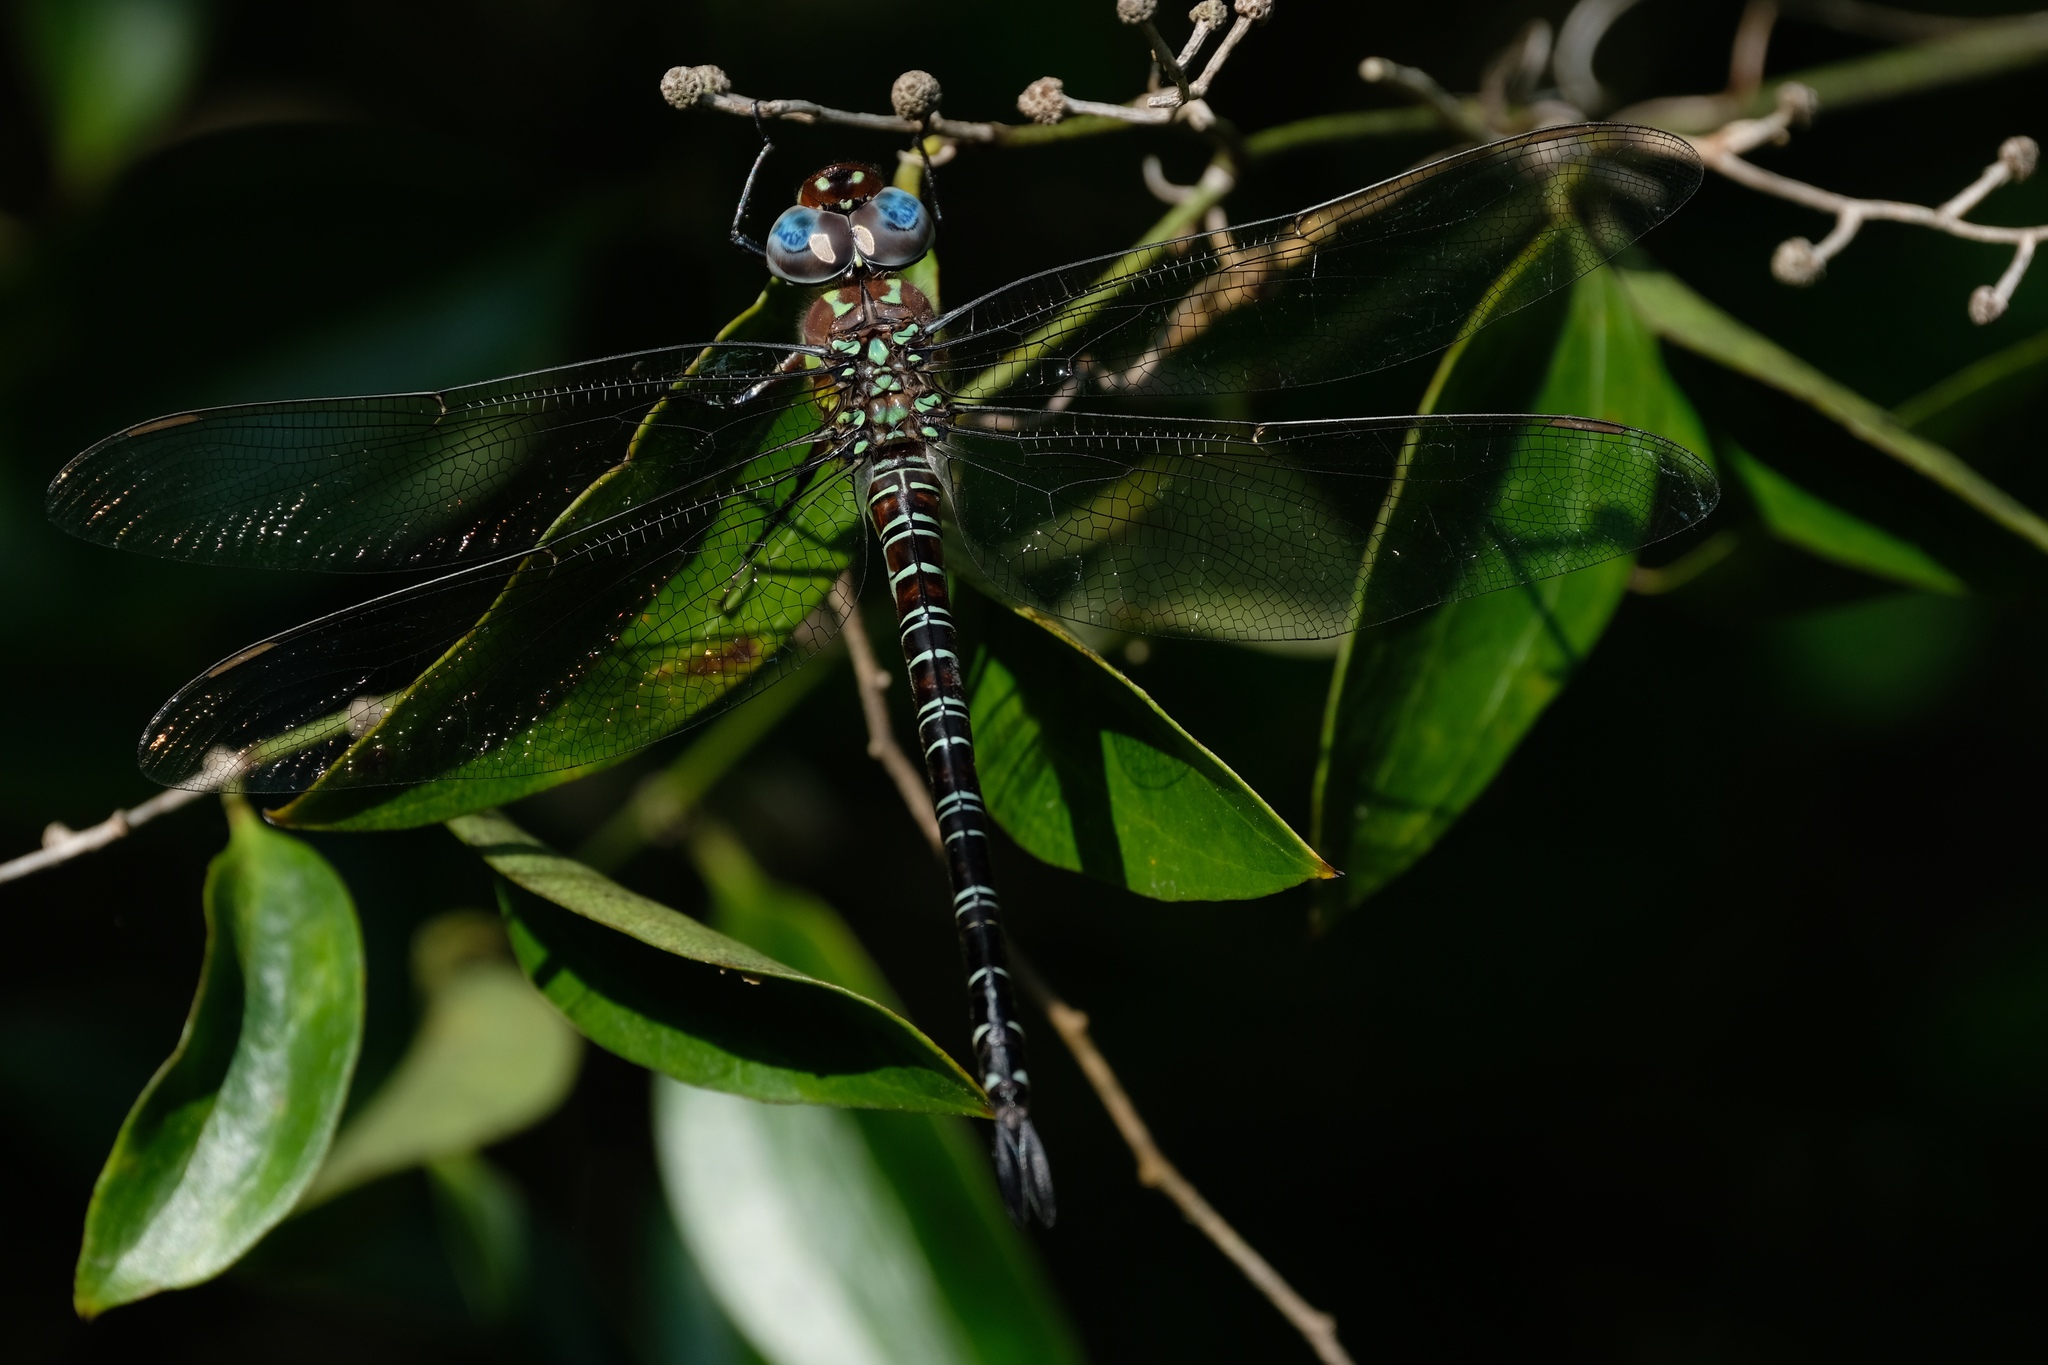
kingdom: Animalia
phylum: Arthropoda
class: Insecta
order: Odonata
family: Aeshnidae
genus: Epiaeschna
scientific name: Epiaeschna heros
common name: Swamp darner
